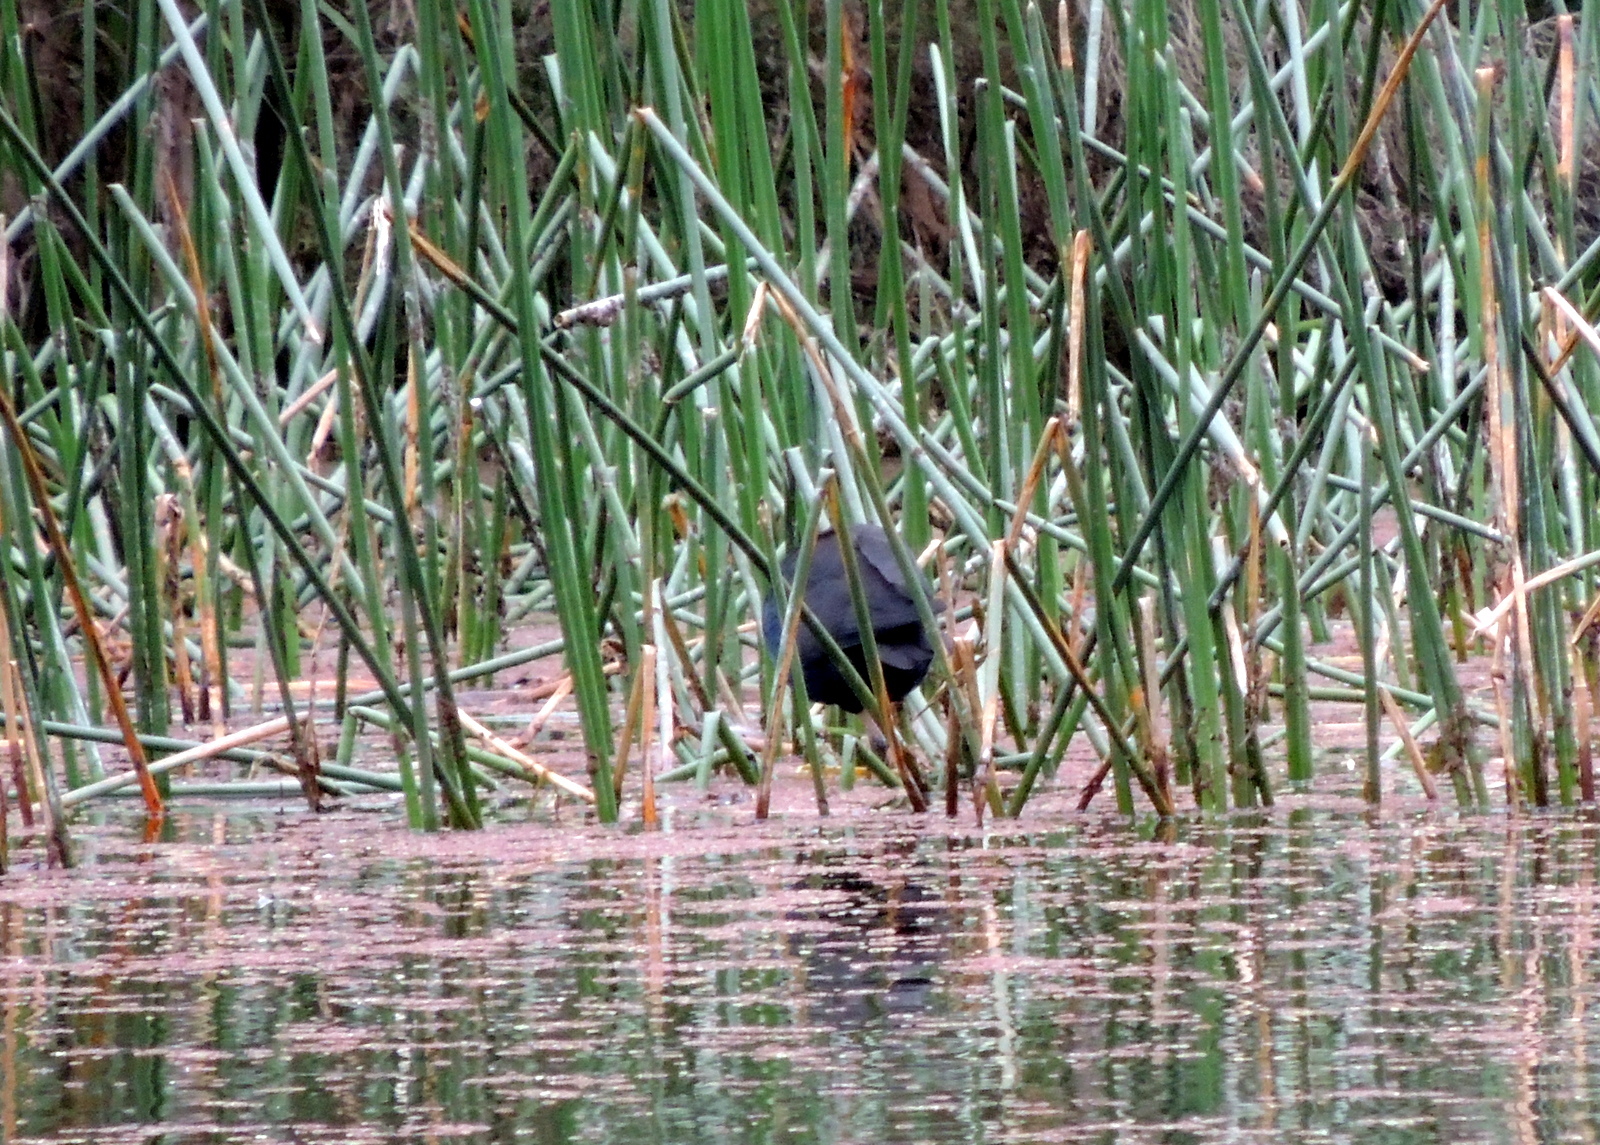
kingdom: Animalia
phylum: Chordata
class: Aves
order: Gruiformes
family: Rallidae
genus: Porphyrio
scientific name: Porphyrio melanotus
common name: Australasian swamphen
